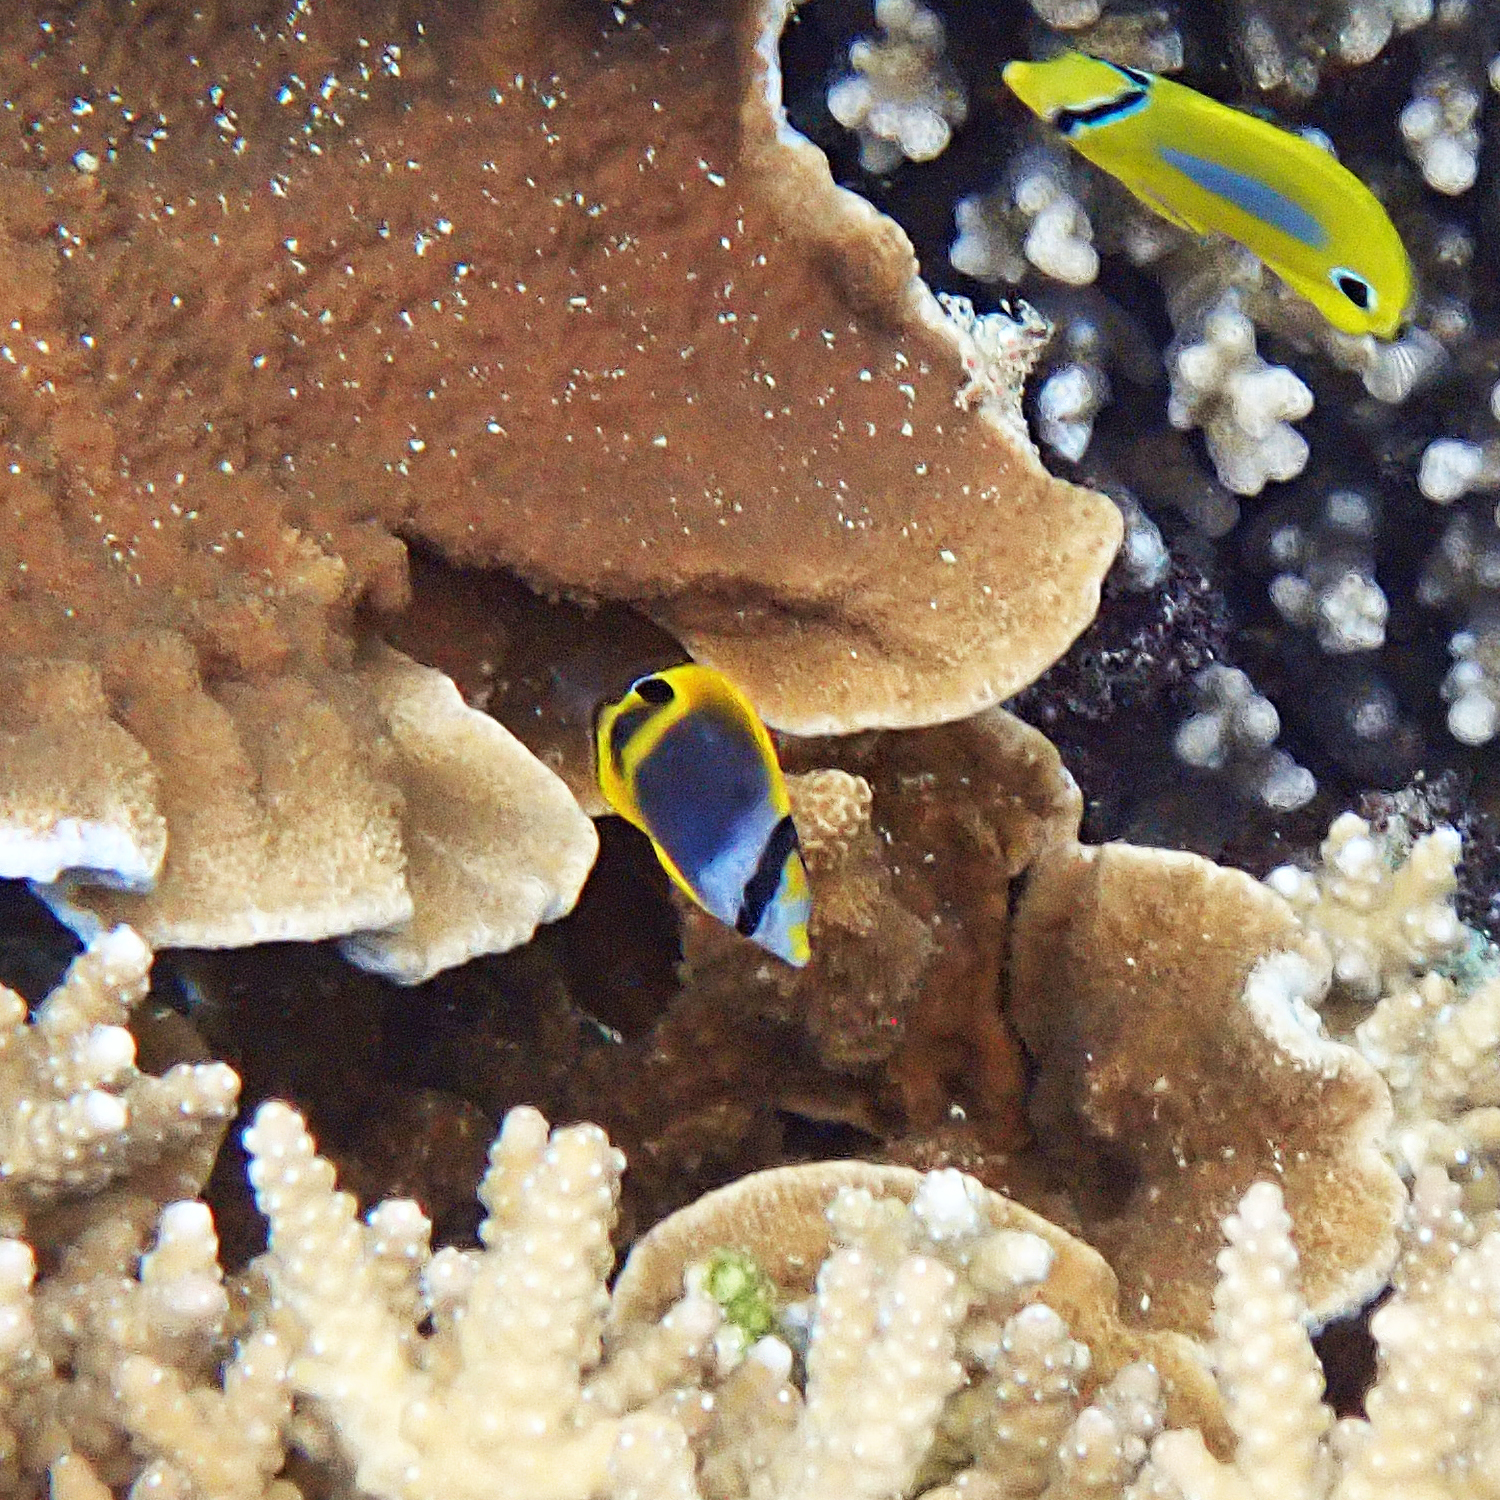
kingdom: Animalia
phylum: Chordata
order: Perciformes
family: Chaetodontidae
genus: Chaetodon
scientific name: Chaetodon flavirostris
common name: Black butterflyfish
